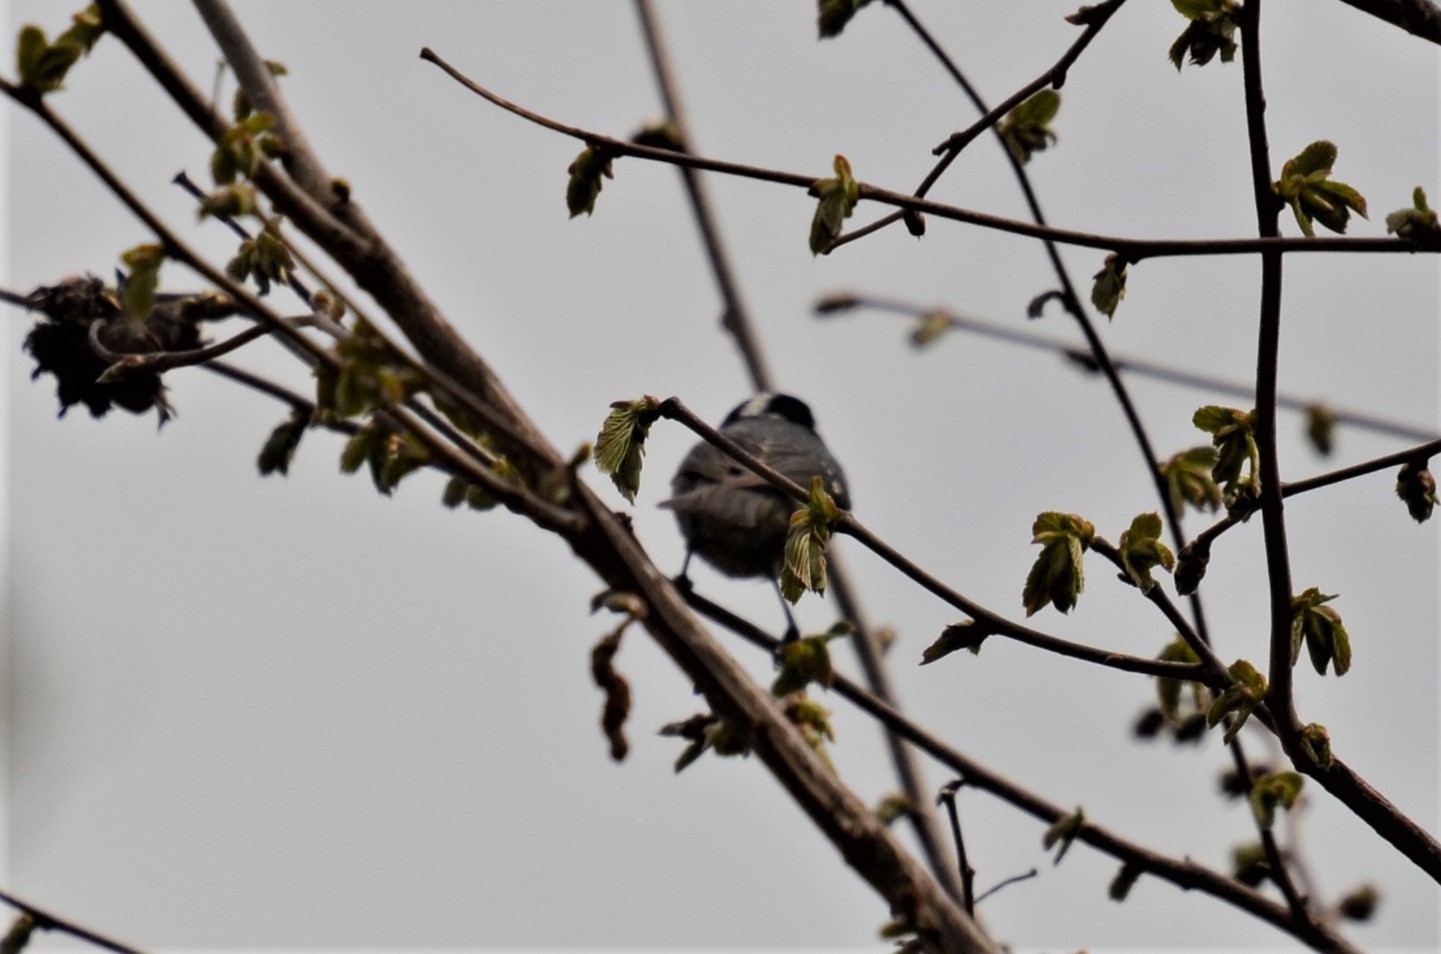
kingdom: Animalia
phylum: Chordata
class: Aves
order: Passeriformes
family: Paridae
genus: Periparus
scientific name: Periparus ater
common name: Coal tit
